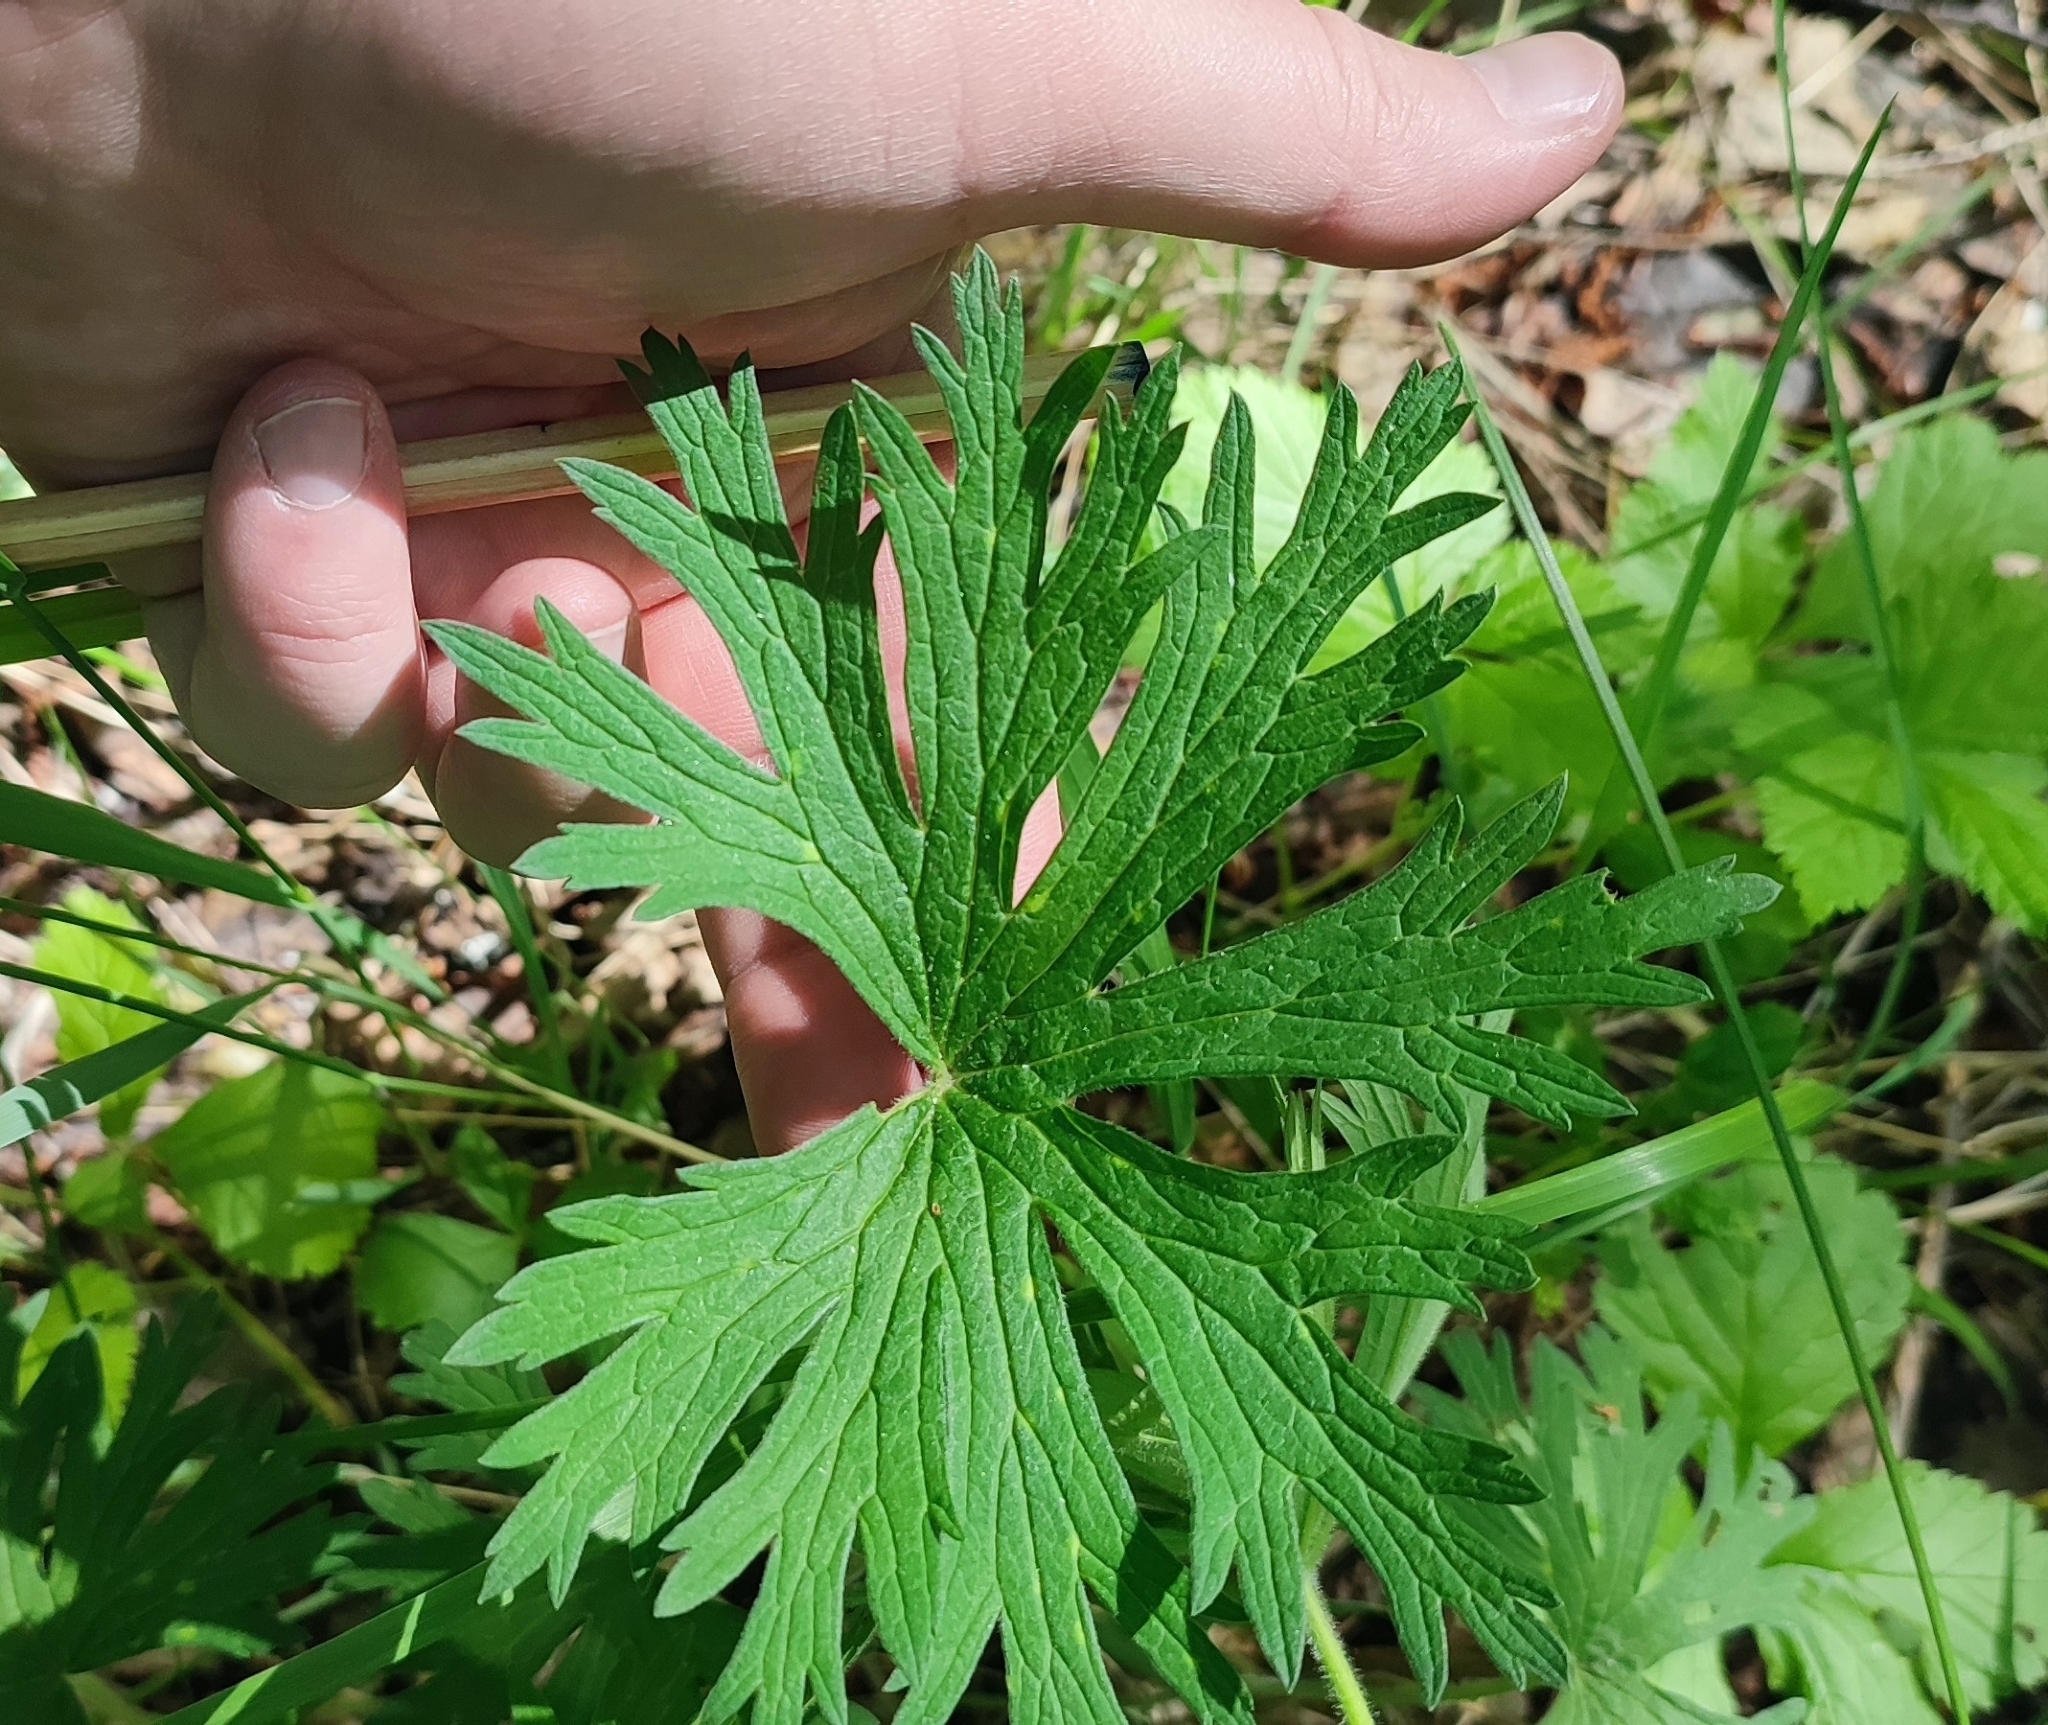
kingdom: Plantae
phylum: Tracheophyta
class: Magnoliopsida
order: Geraniales
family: Geraniaceae
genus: Geranium
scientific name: Geranium sylvaticum
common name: Wood crane's-bill
